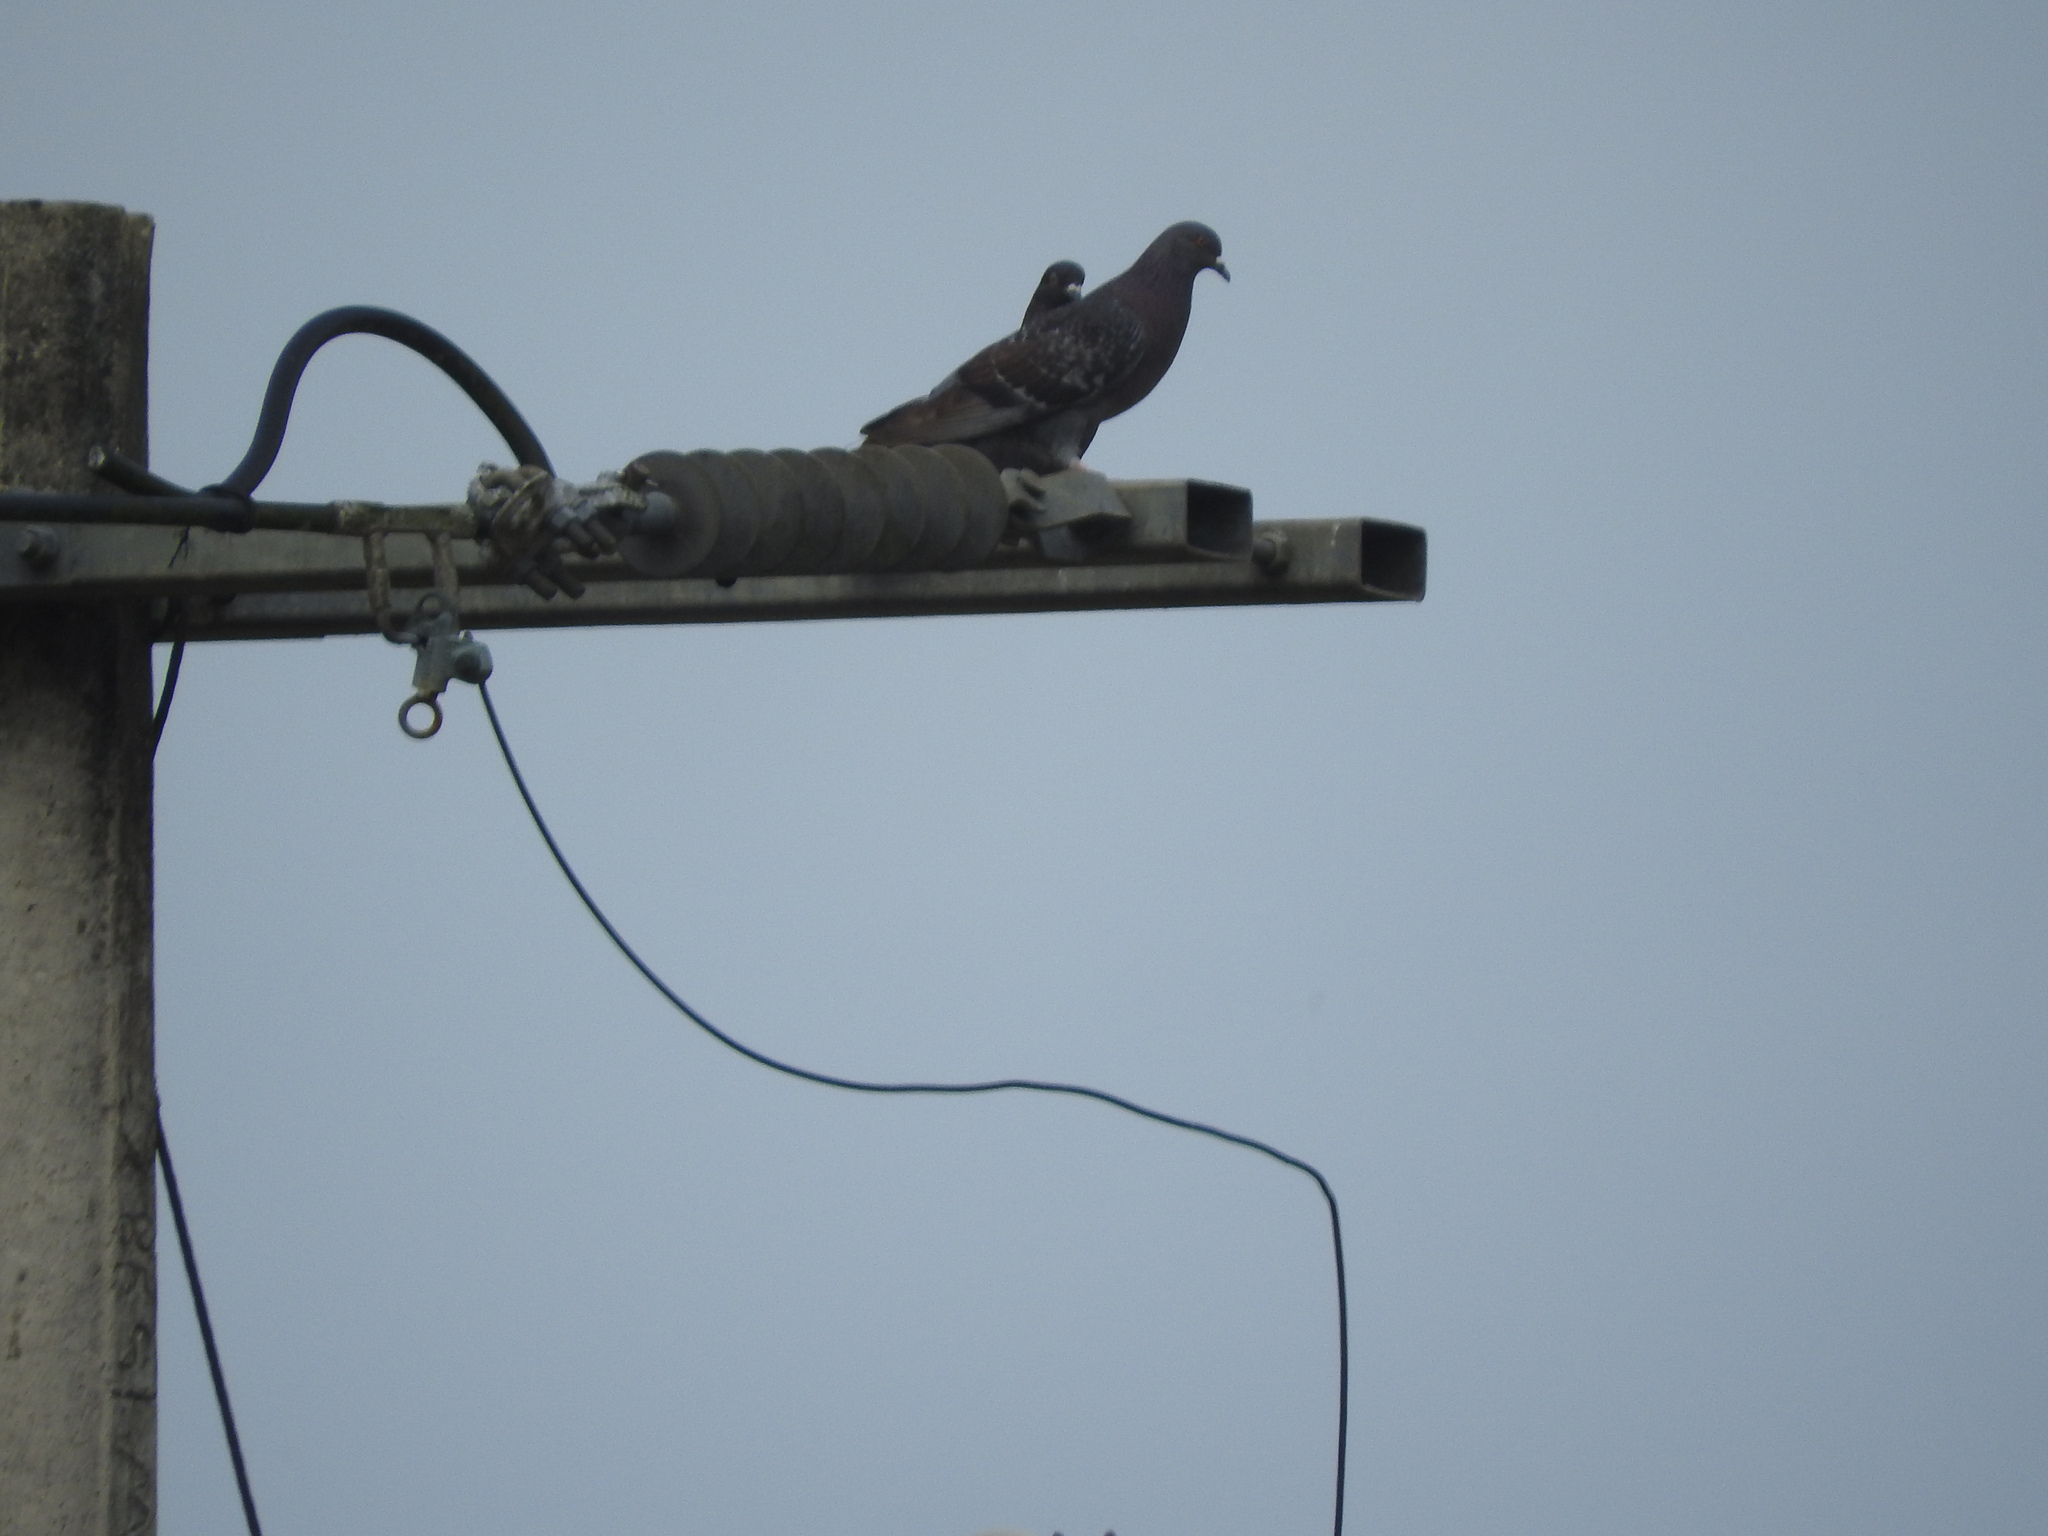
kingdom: Animalia
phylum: Chordata
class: Aves
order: Columbiformes
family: Columbidae
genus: Columba
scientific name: Columba livia
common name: Rock pigeon
